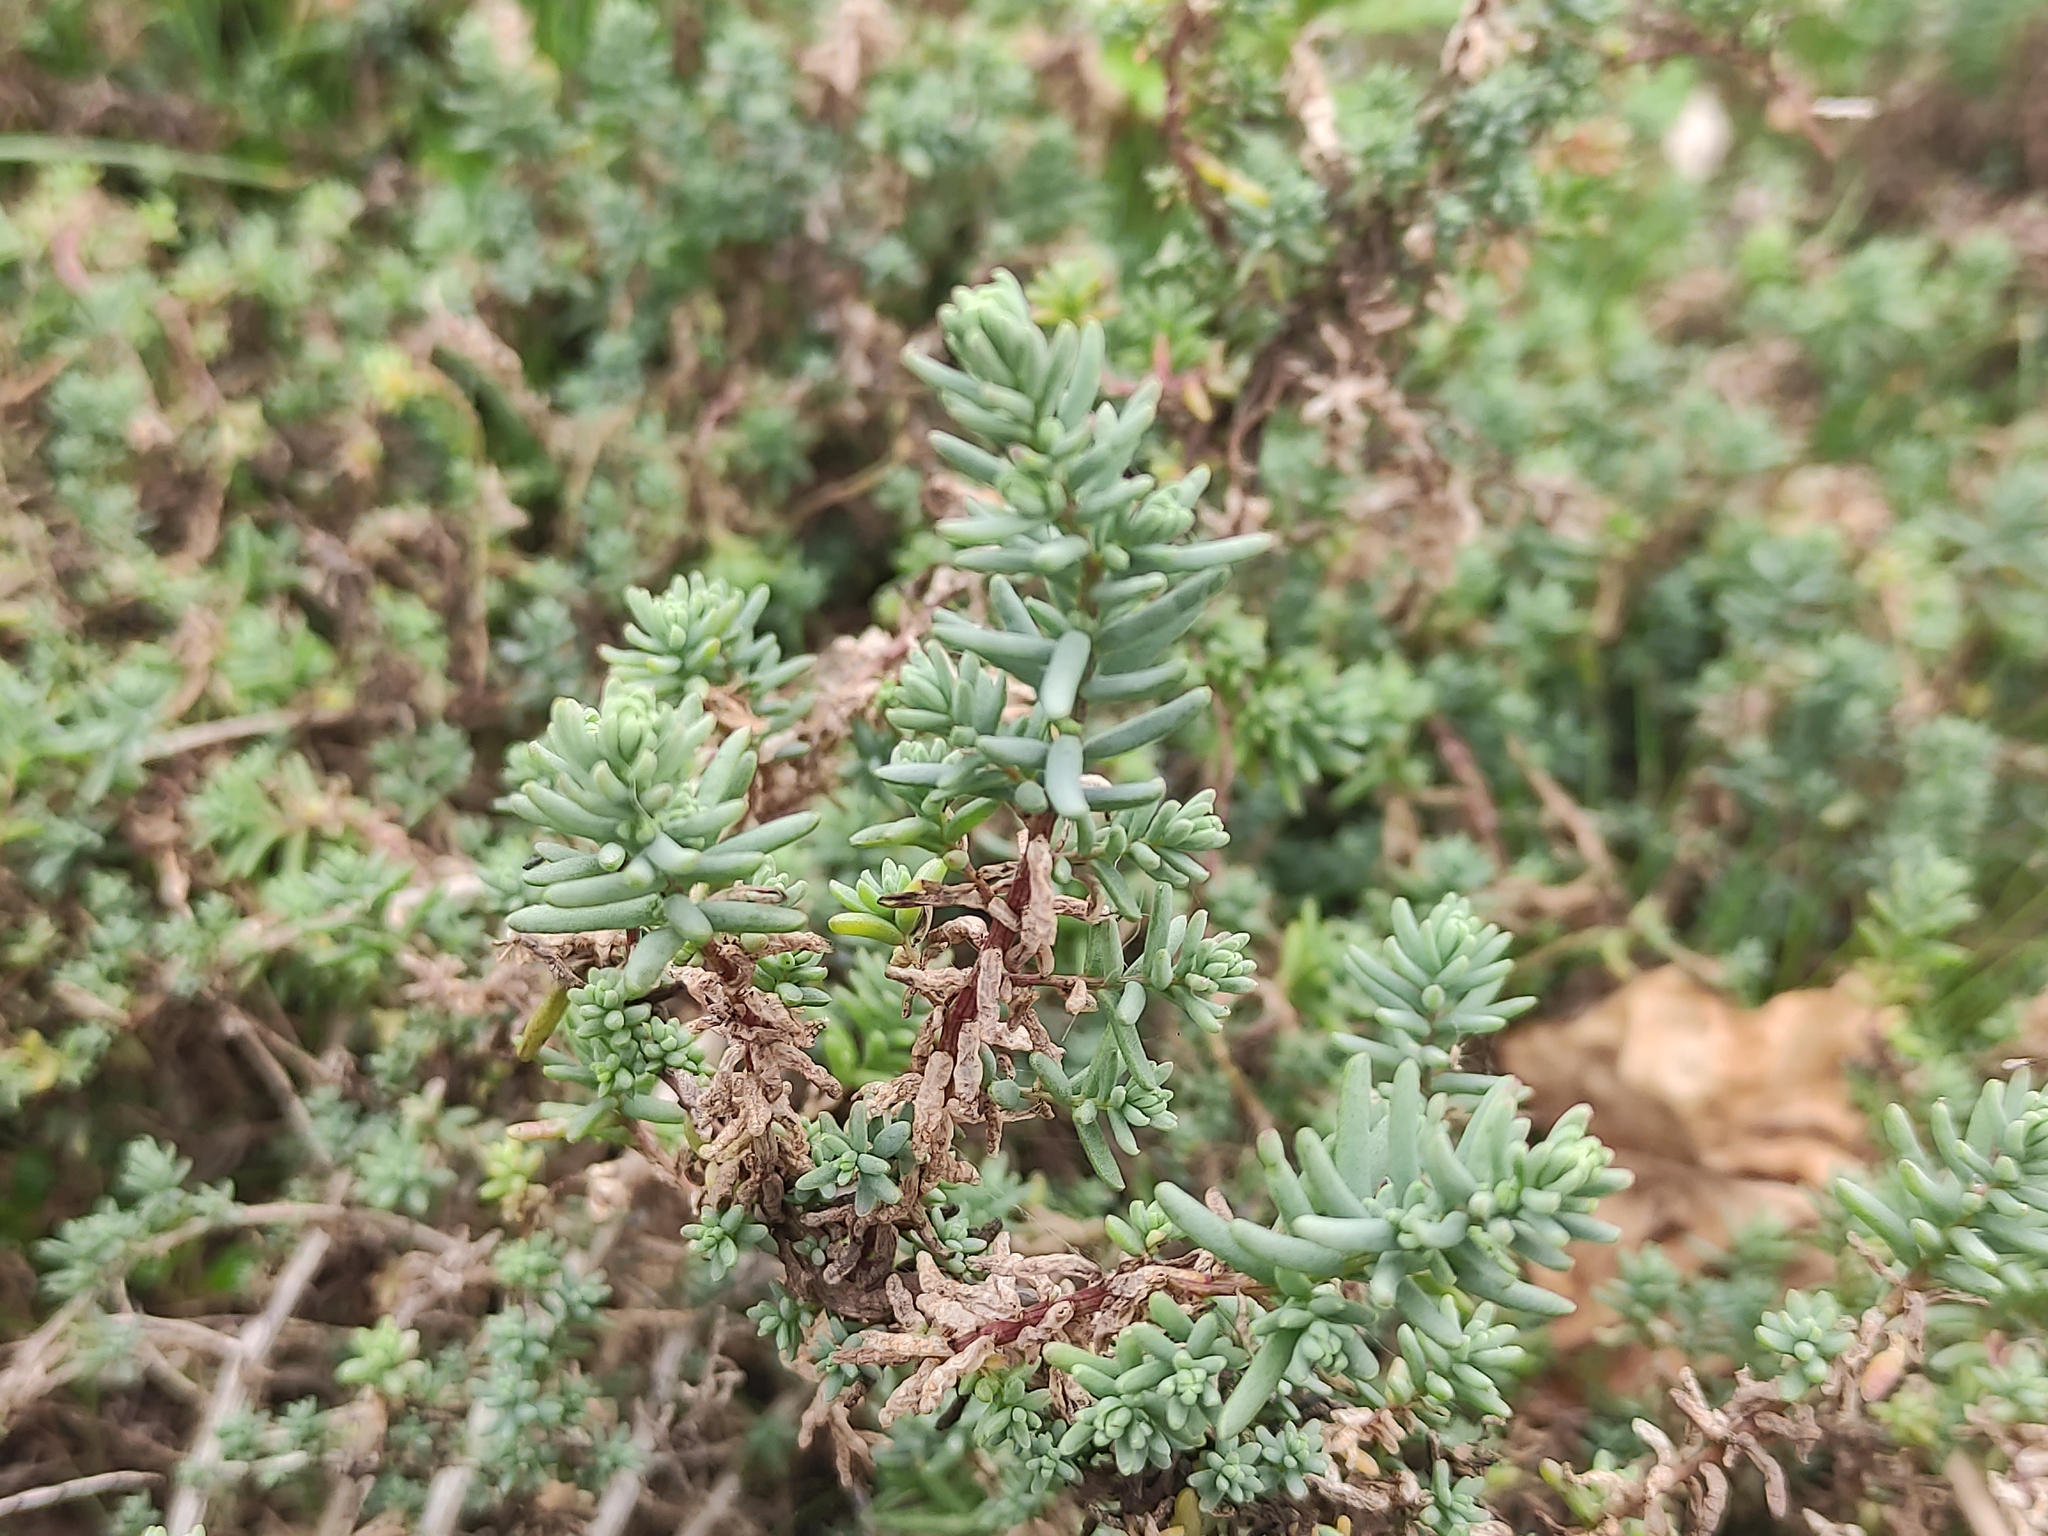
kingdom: Plantae
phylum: Tracheophyta
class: Magnoliopsida
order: Caryophyllales
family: Amaranthaceae
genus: Suaeda
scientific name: Suaeda vera
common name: Shrubby sea-blite
